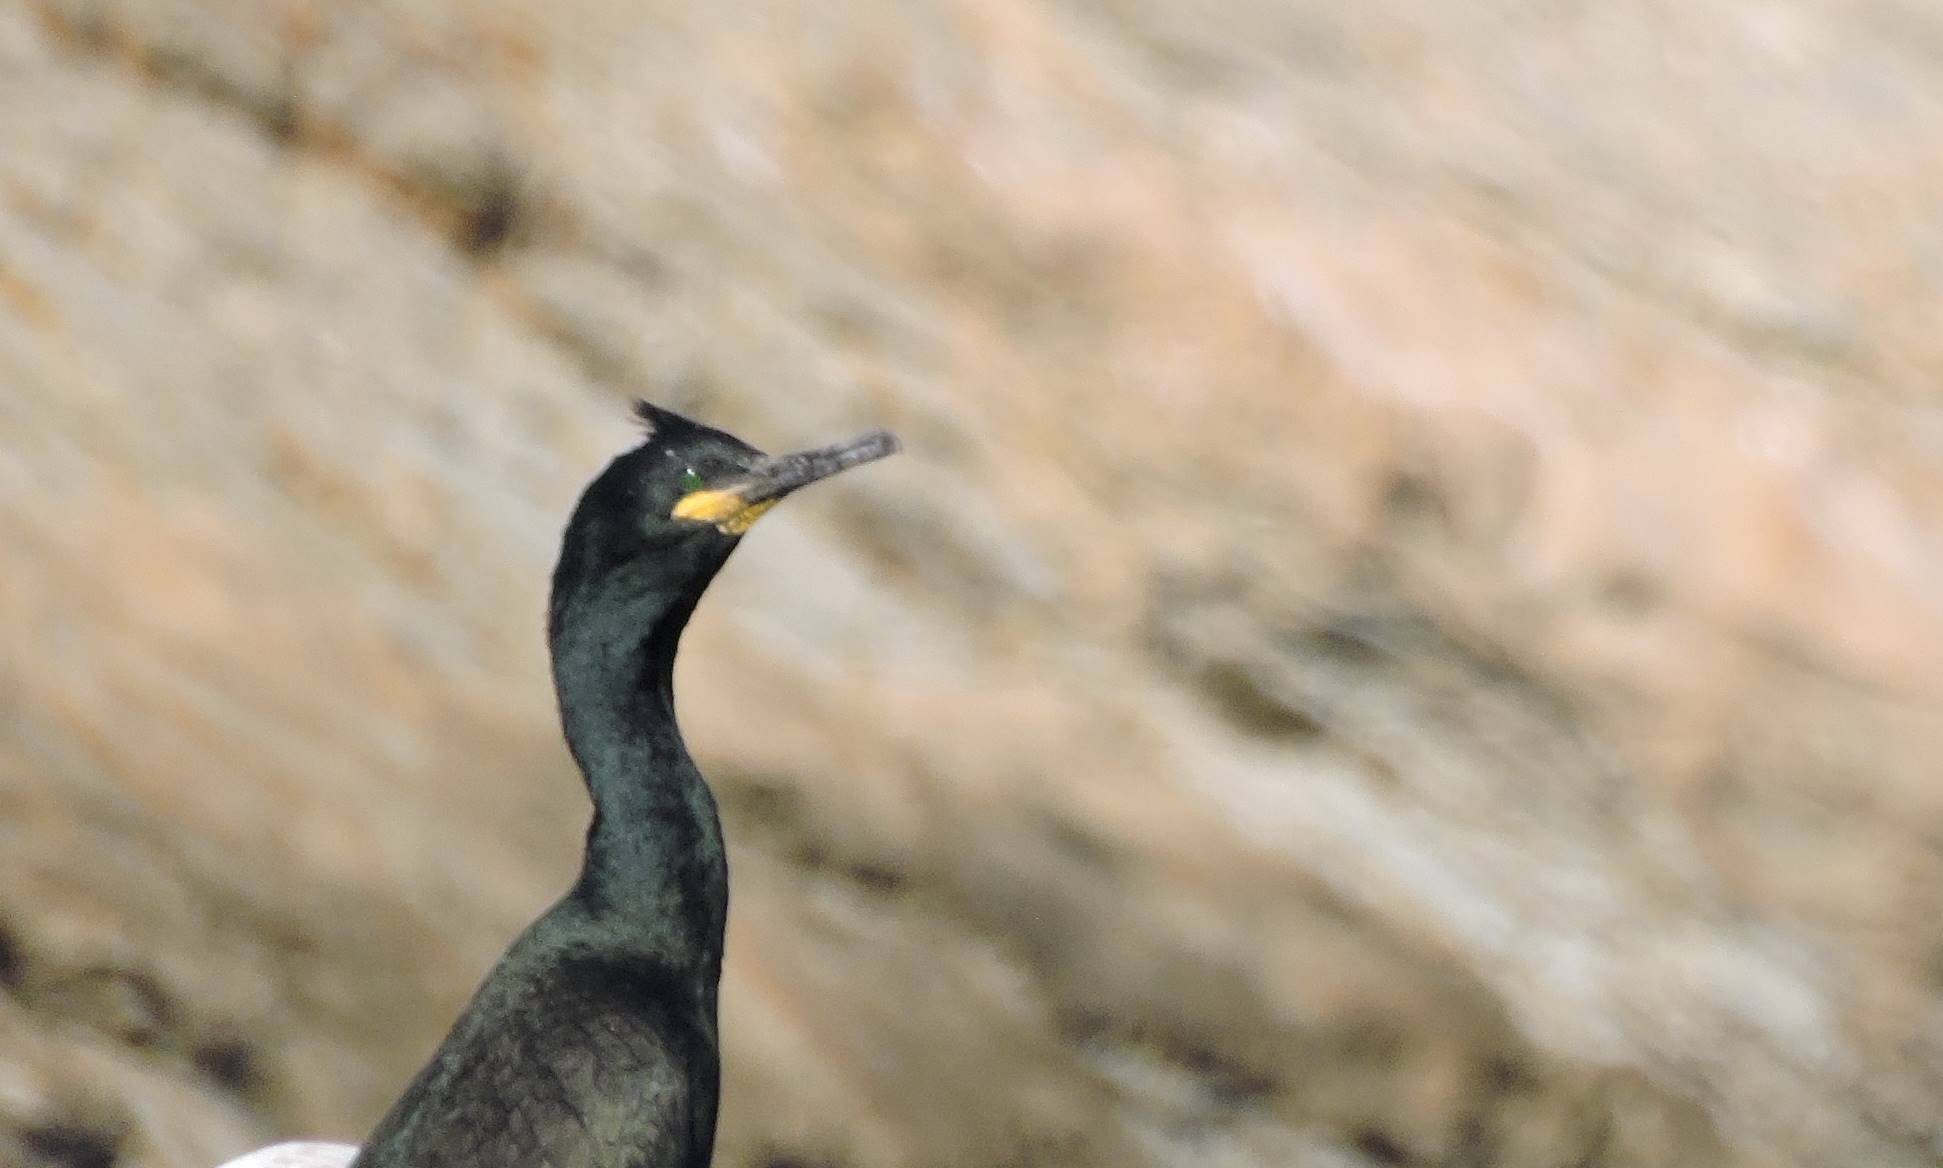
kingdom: Animalia
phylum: Chordata
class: Aves
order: Suliformes
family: Phalacrocoracidae
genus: Phalacrocorax
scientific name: Phalacrocorax aristotelis
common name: European shag
